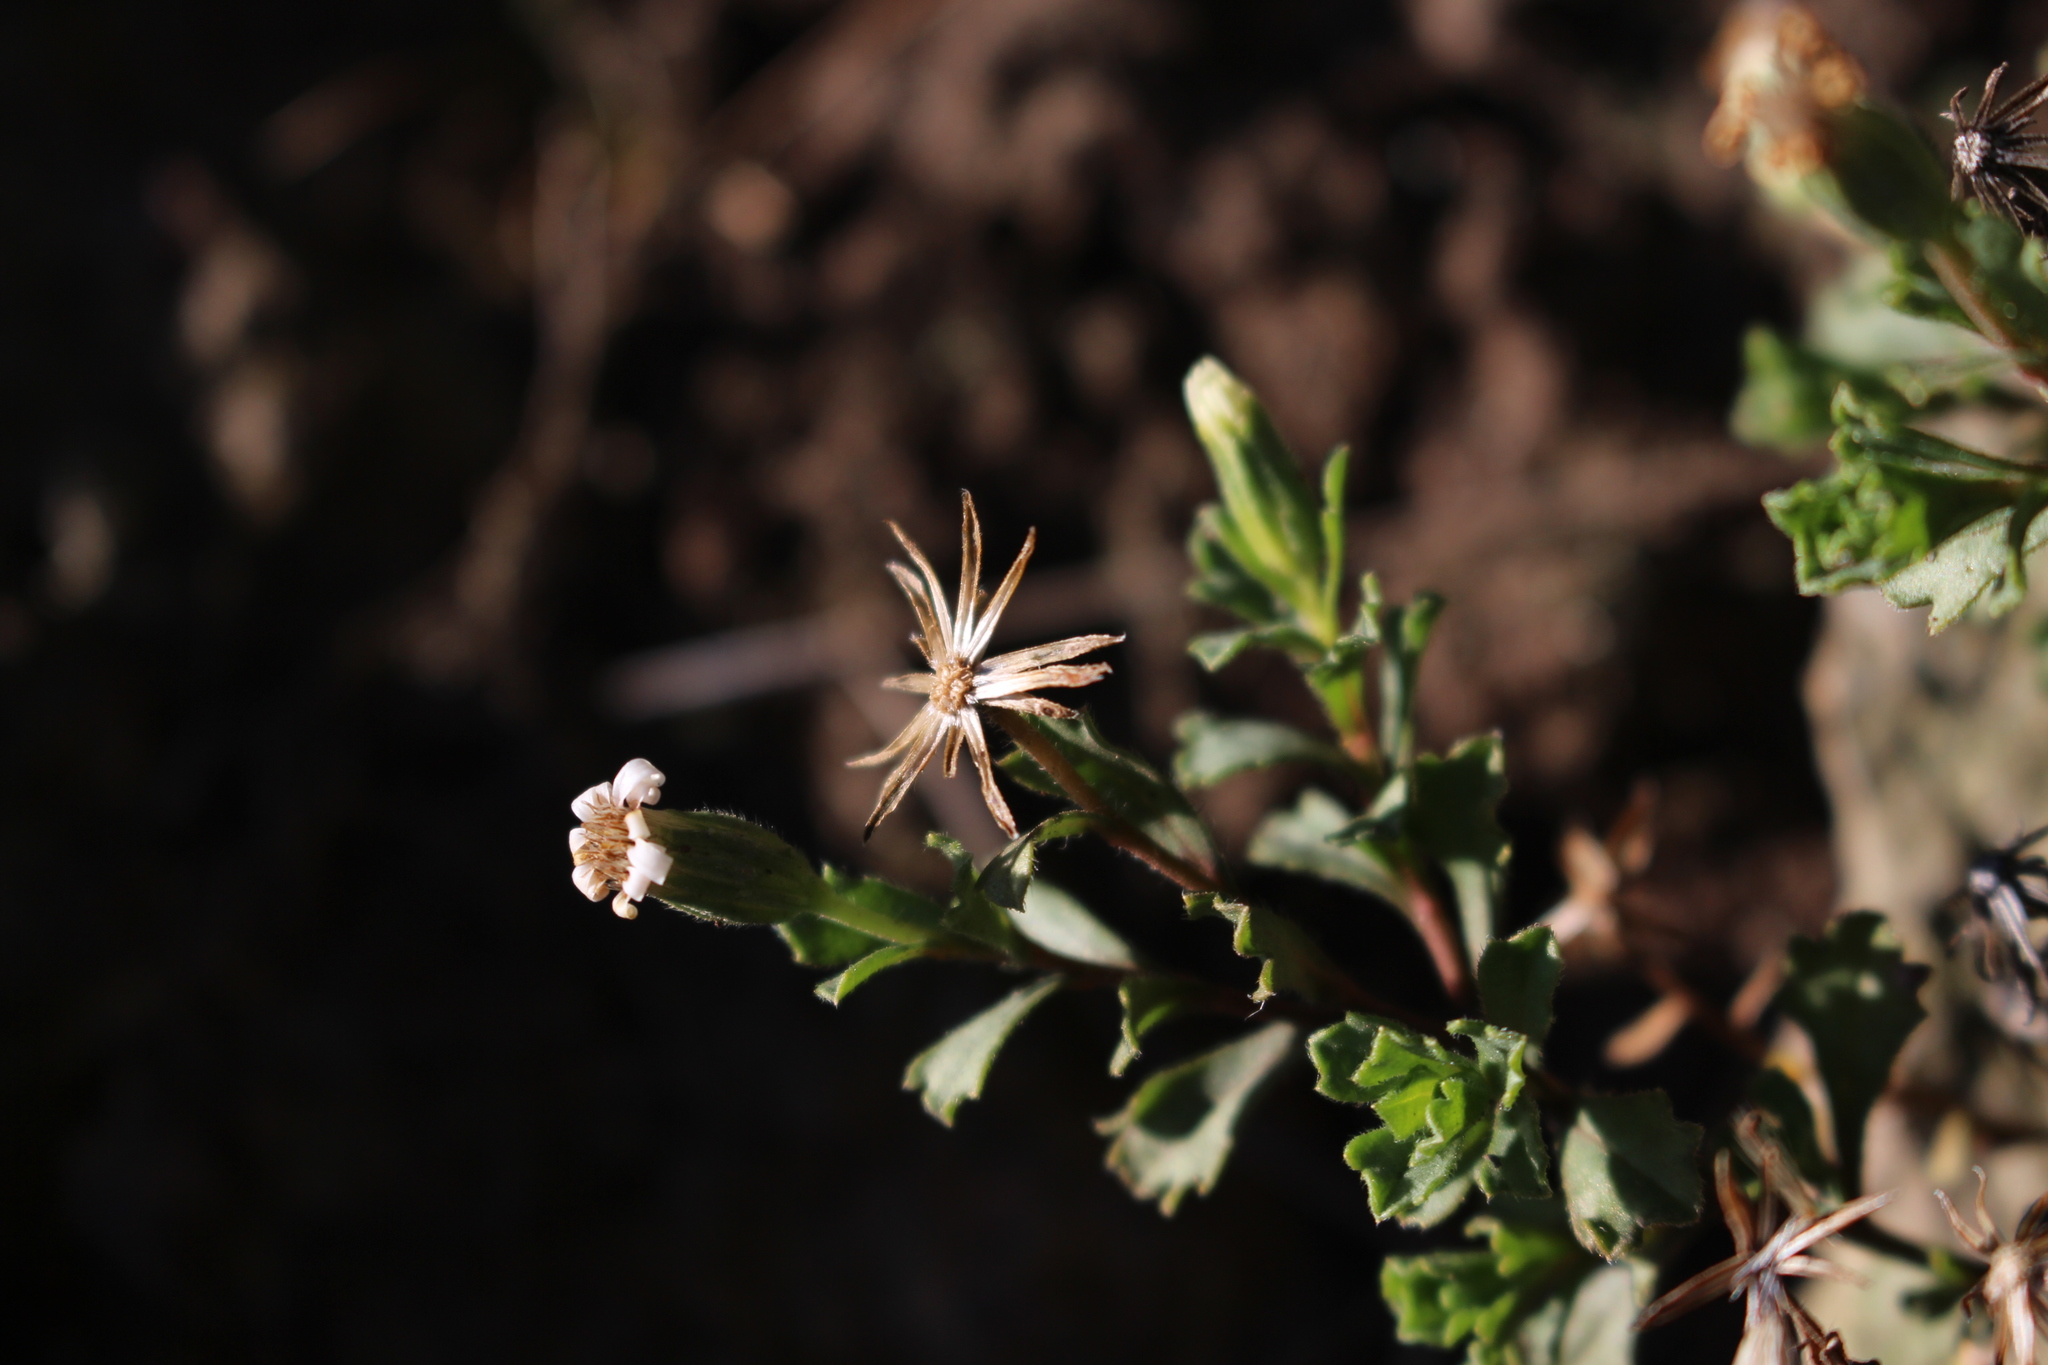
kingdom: Plantae
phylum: Tracheophyta
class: Magnoliopsida
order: Asterales
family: Asteraceae
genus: Vittadinia
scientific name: Vittadinia australis
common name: White fuzzweed
